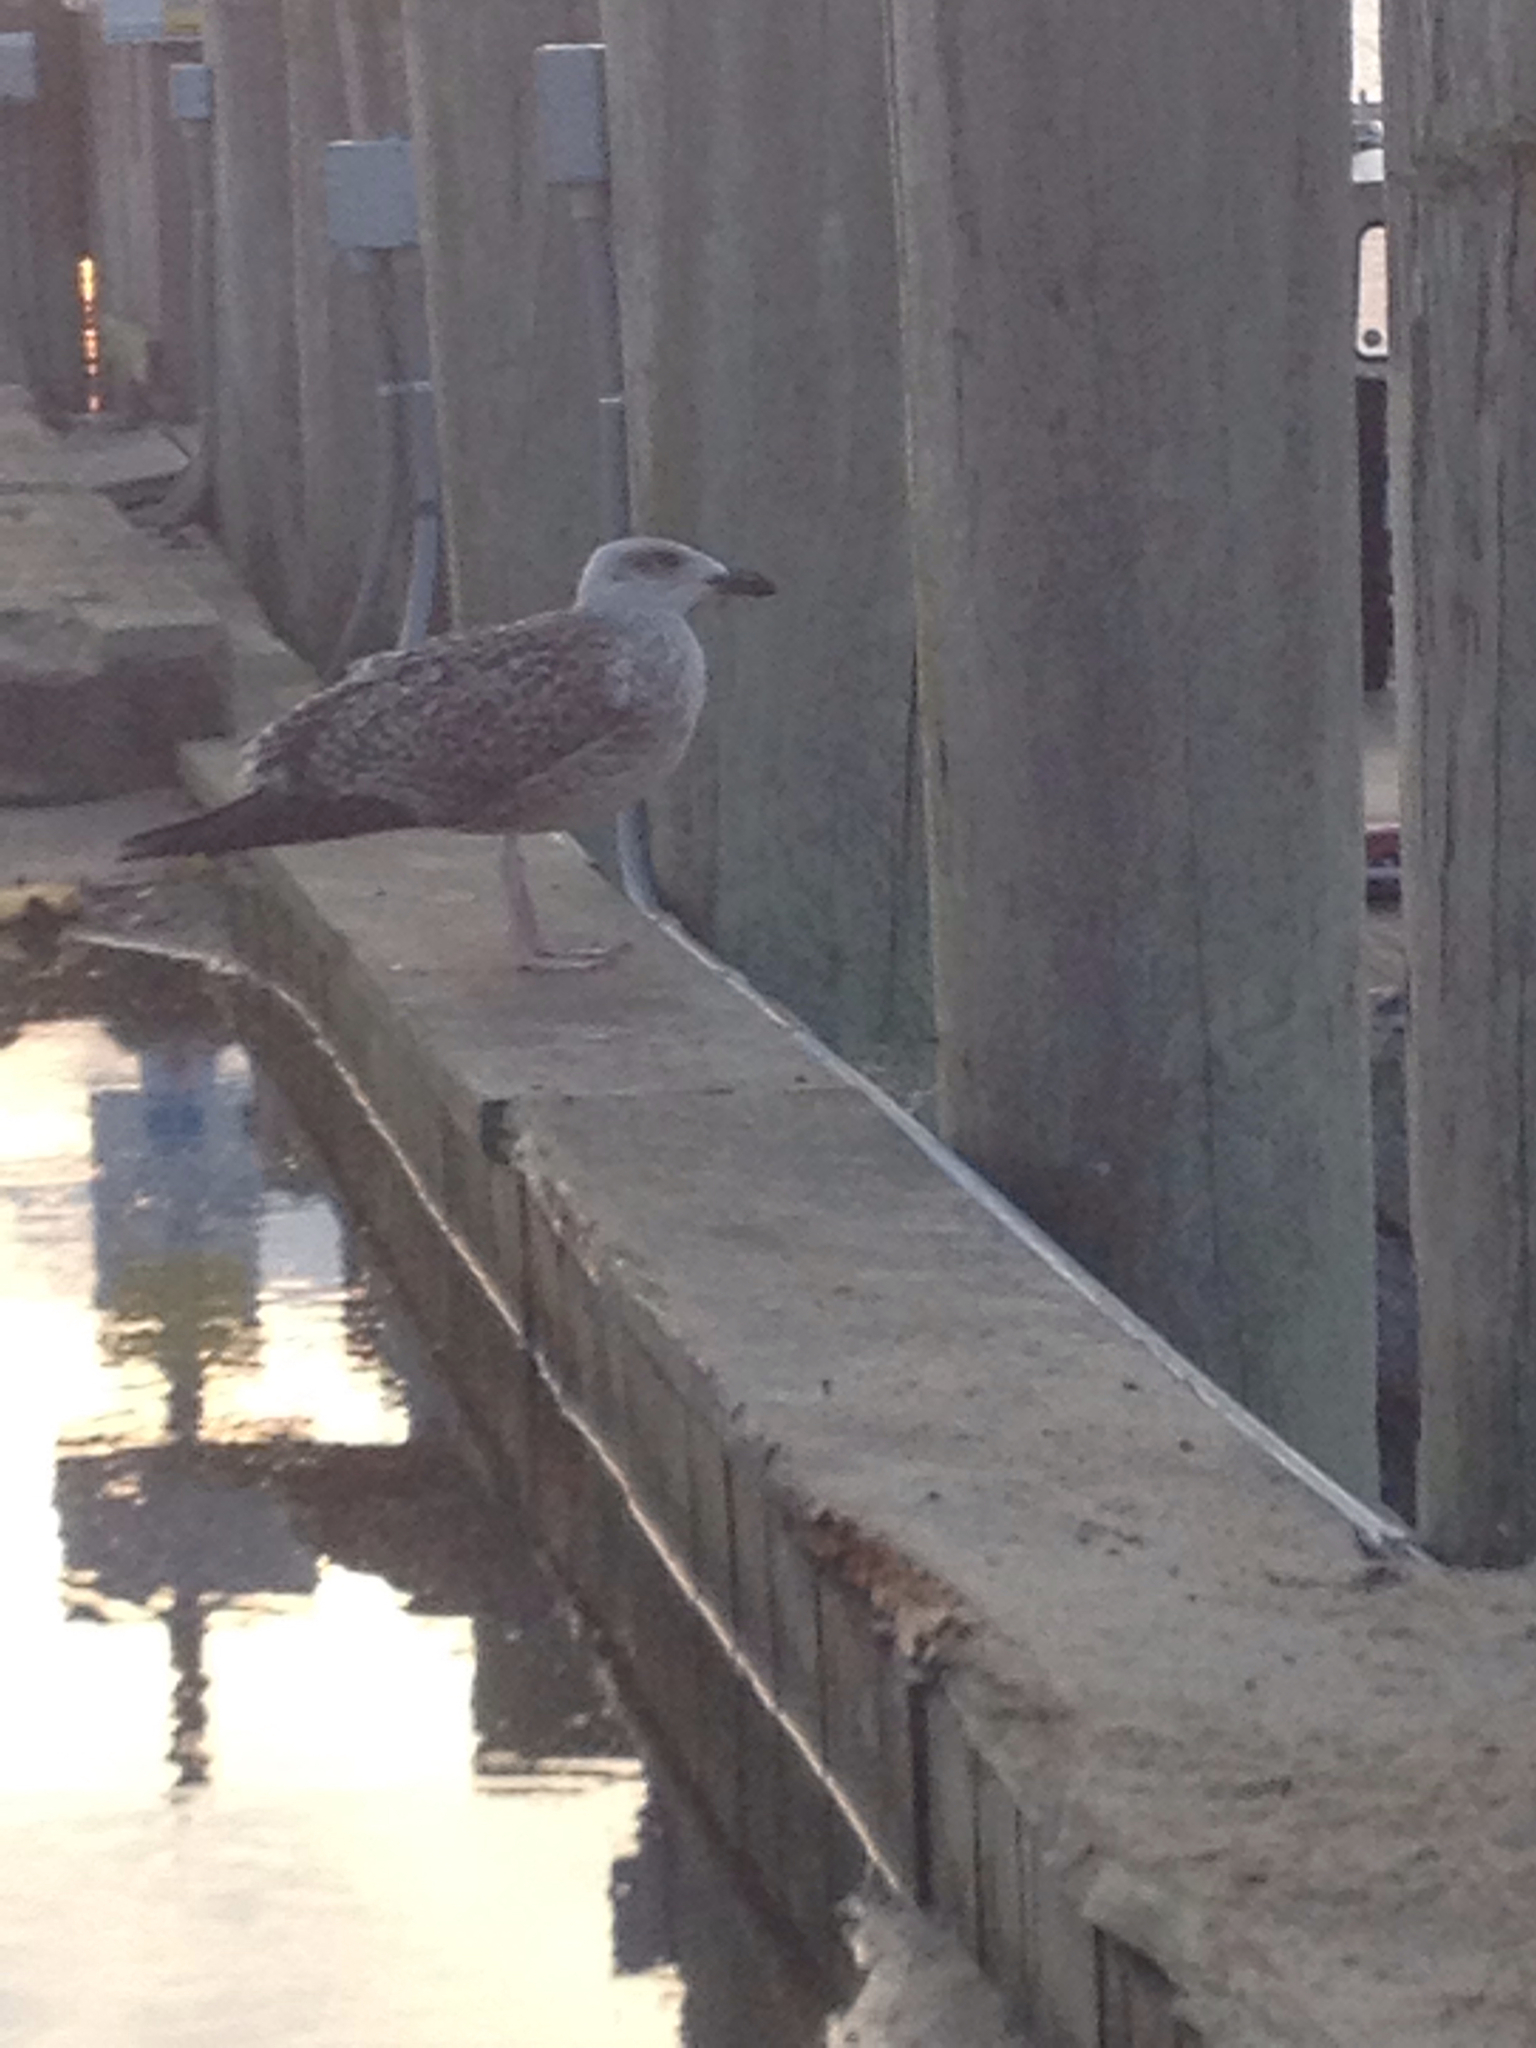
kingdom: Animalia
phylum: Chordata
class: Aves
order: Charadriiformes
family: Laridae
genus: Larus
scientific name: Larus marinus
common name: Great black-backed gull
